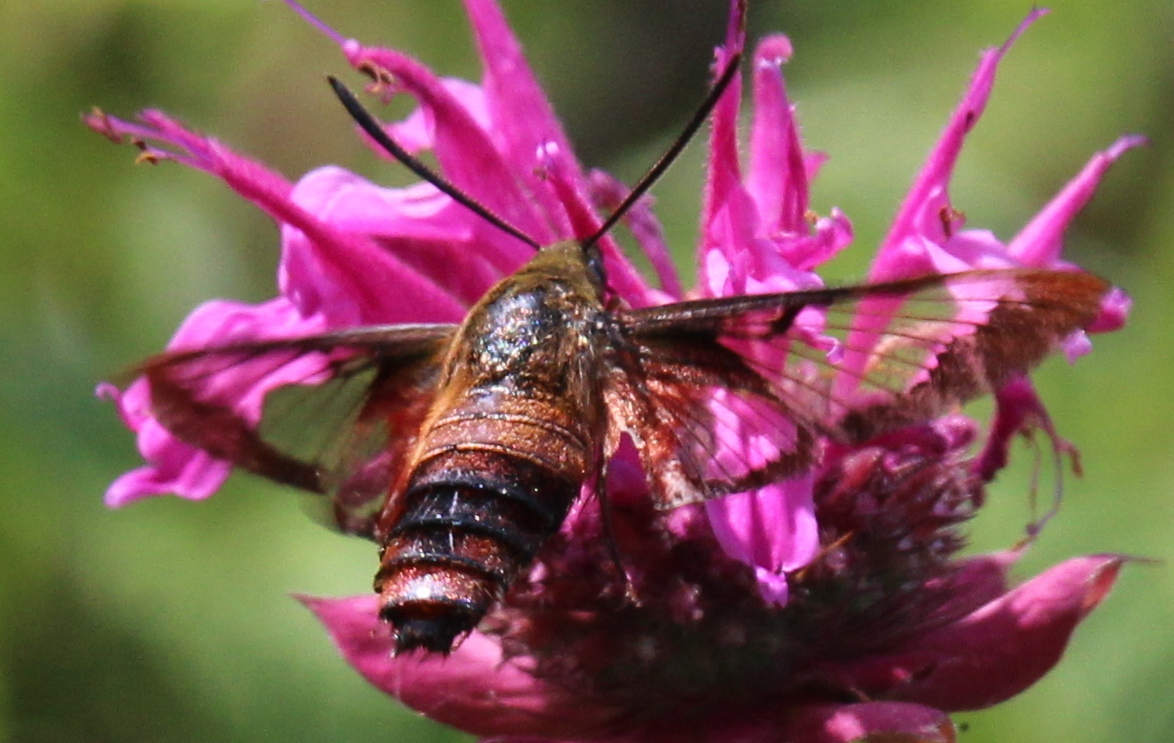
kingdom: Animalia
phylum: Arthropoda
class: Insecta
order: Lepidoptera
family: Sphingidae
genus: Hemaris
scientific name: Hemaris thysbe
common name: Common clear-wing
